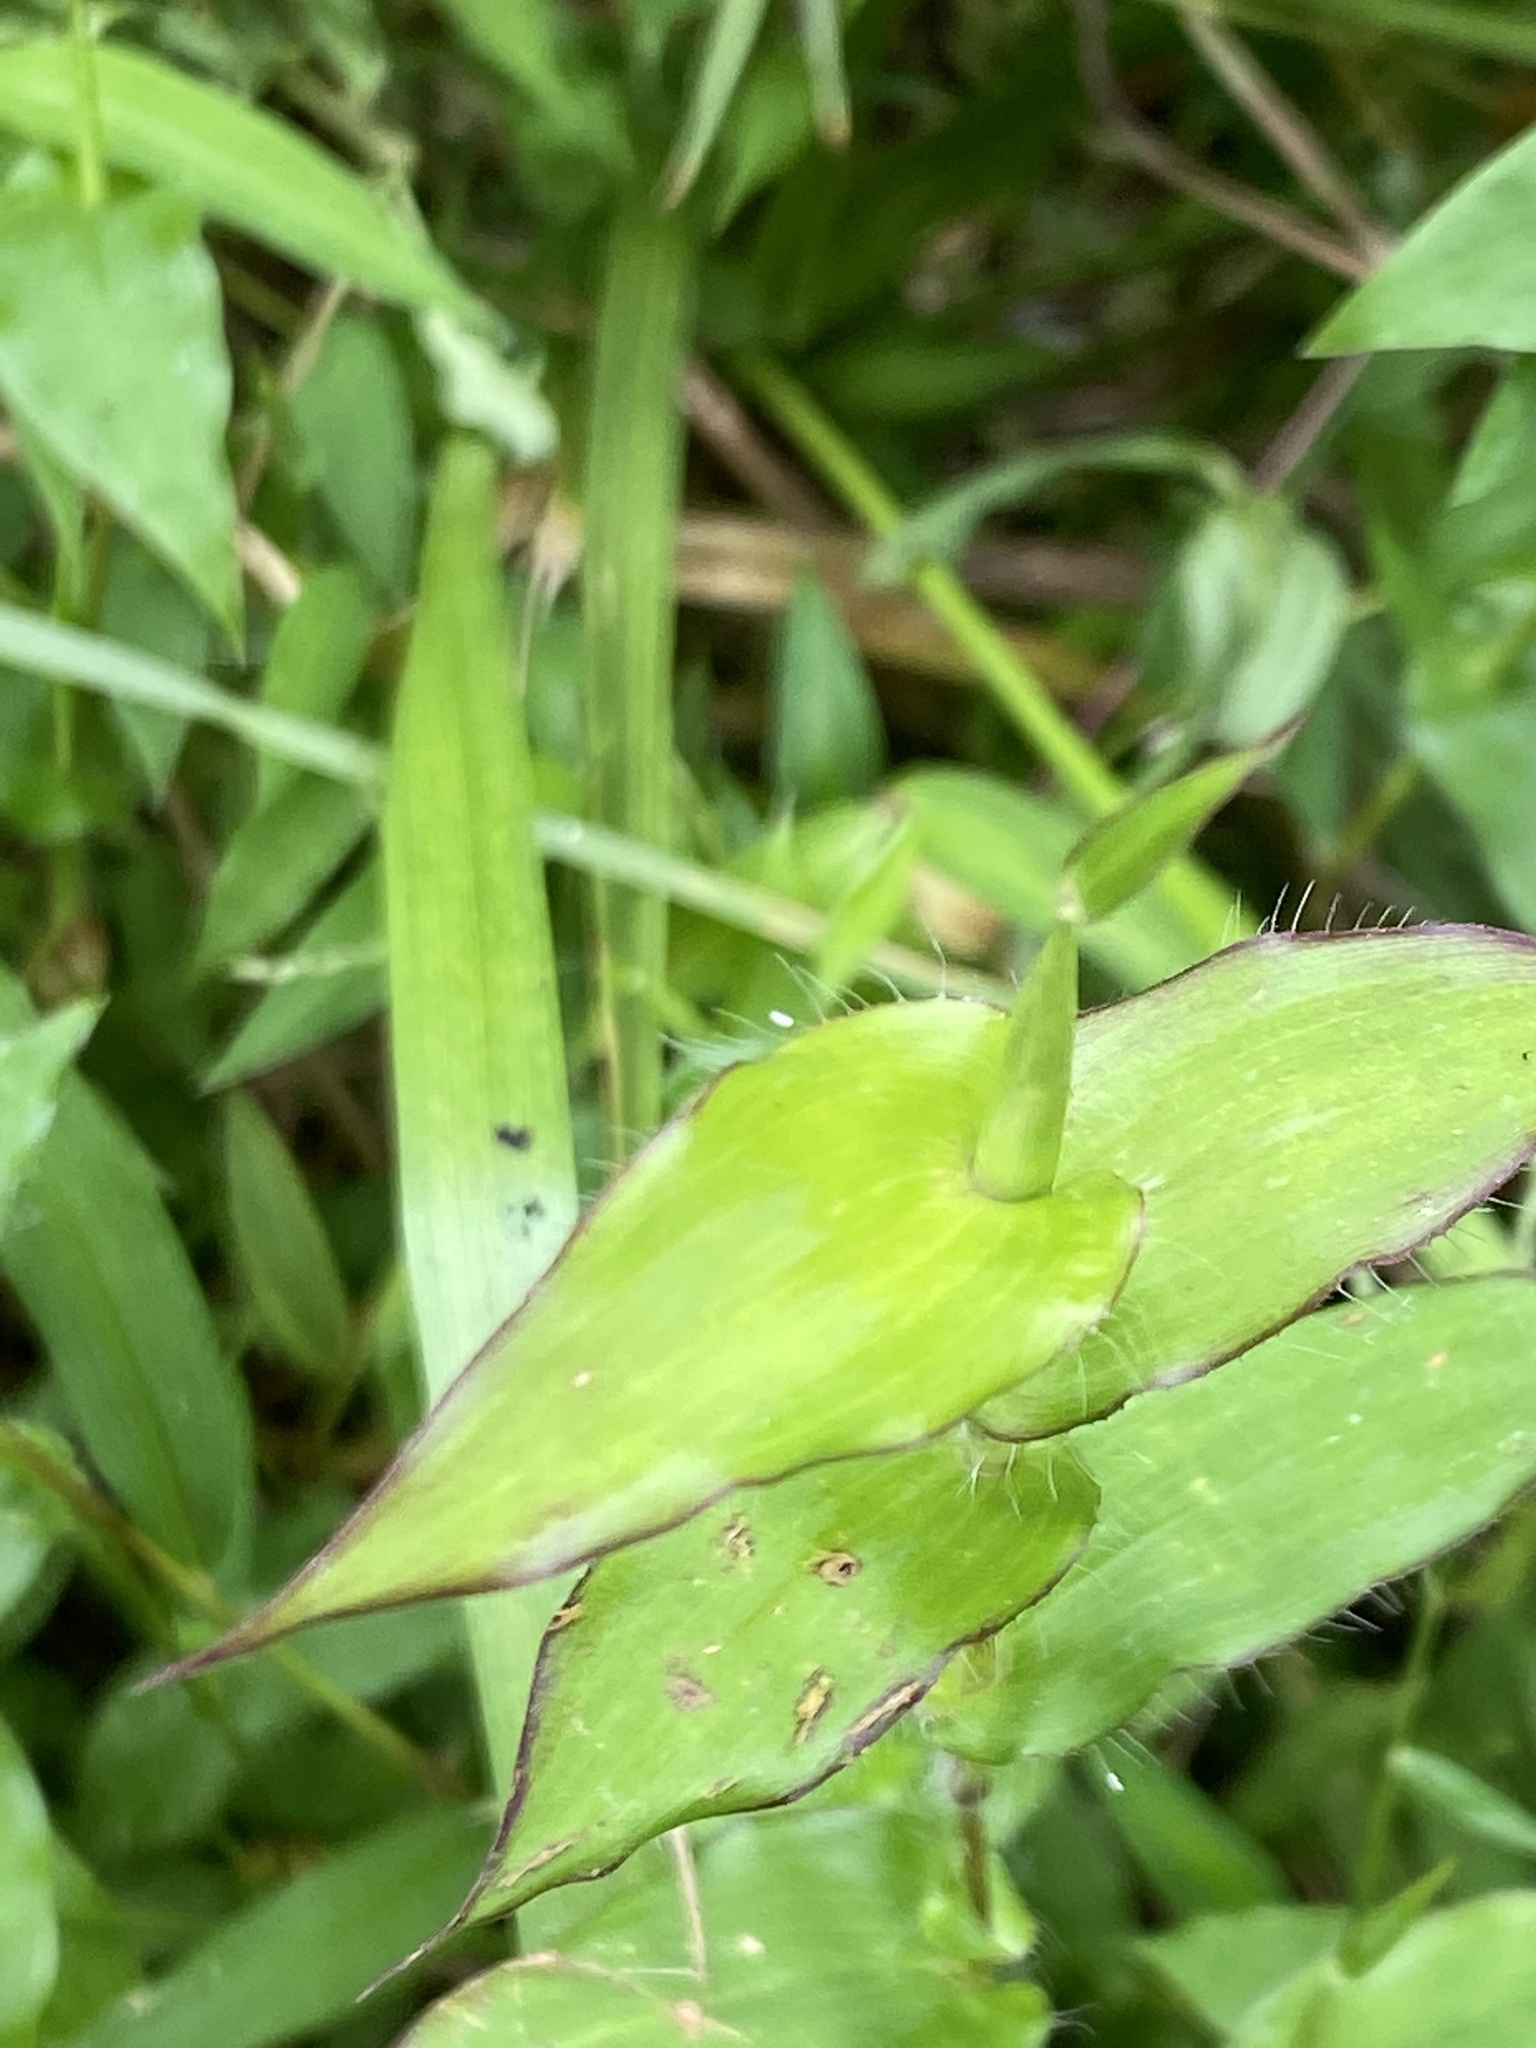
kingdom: Plantae
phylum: Tracheophyta
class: Liliopsida
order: Poales
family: Poaceae
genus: Arthraxon
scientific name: Arthraxon hispidus
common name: Small carpgrass
